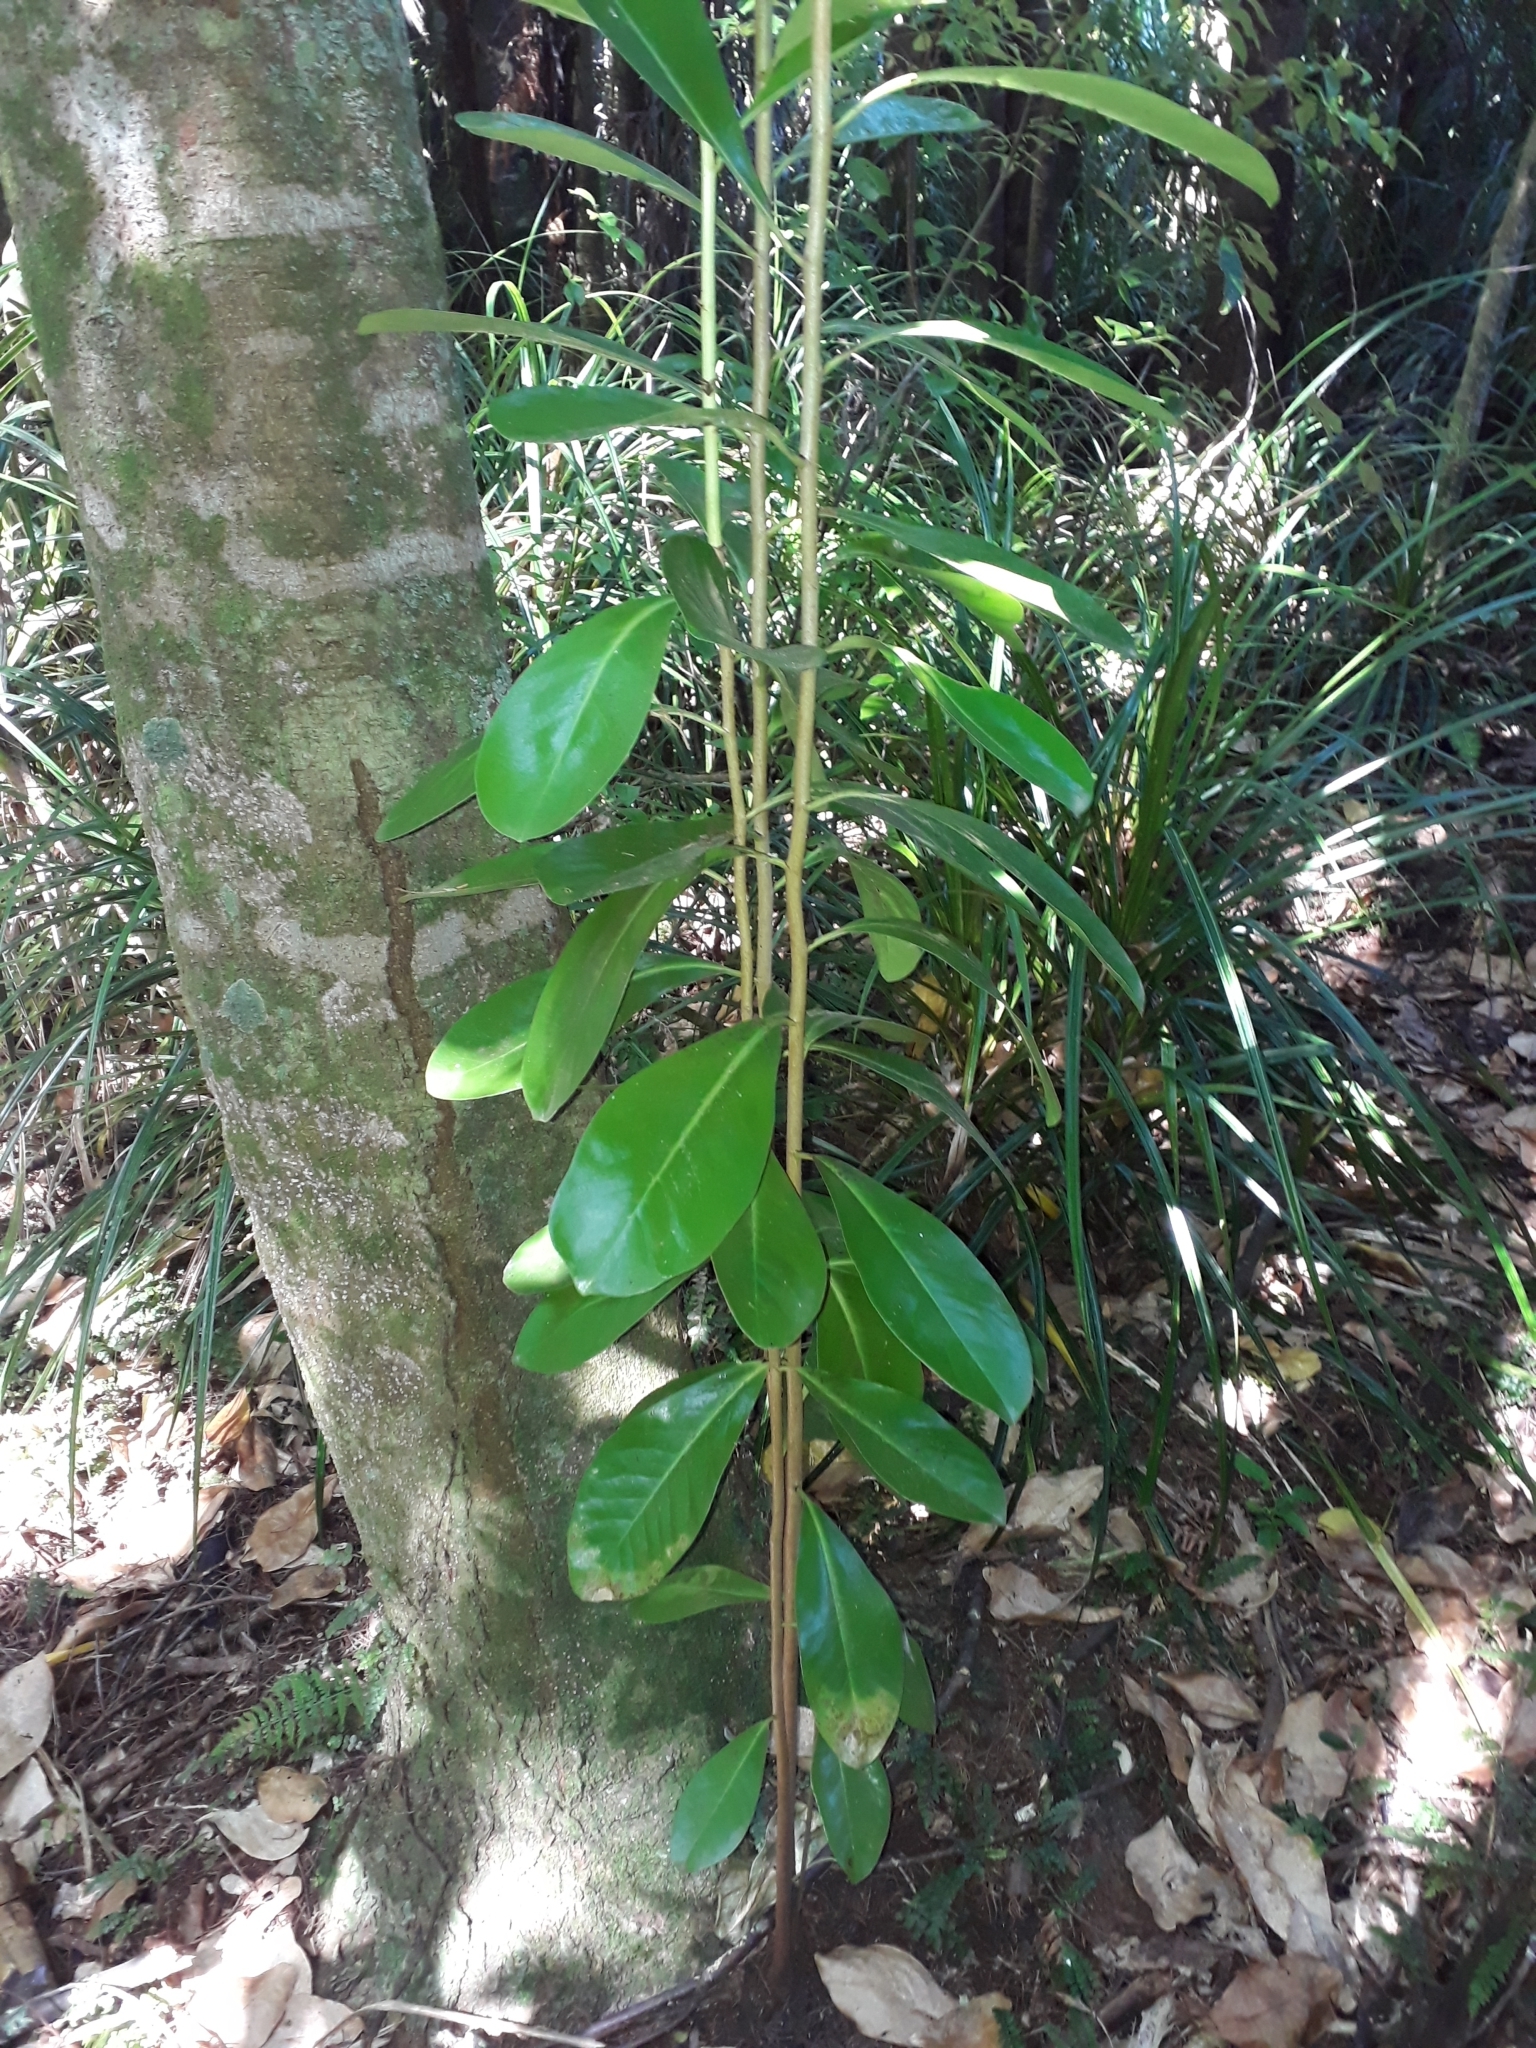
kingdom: Plantae
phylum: Tracheophyta
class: Magnoliopsida
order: Cucurbitales
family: Corynocarpaceae
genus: Corynocarpus
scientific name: Corynocarpus laevigatus
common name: New zealand laurel
